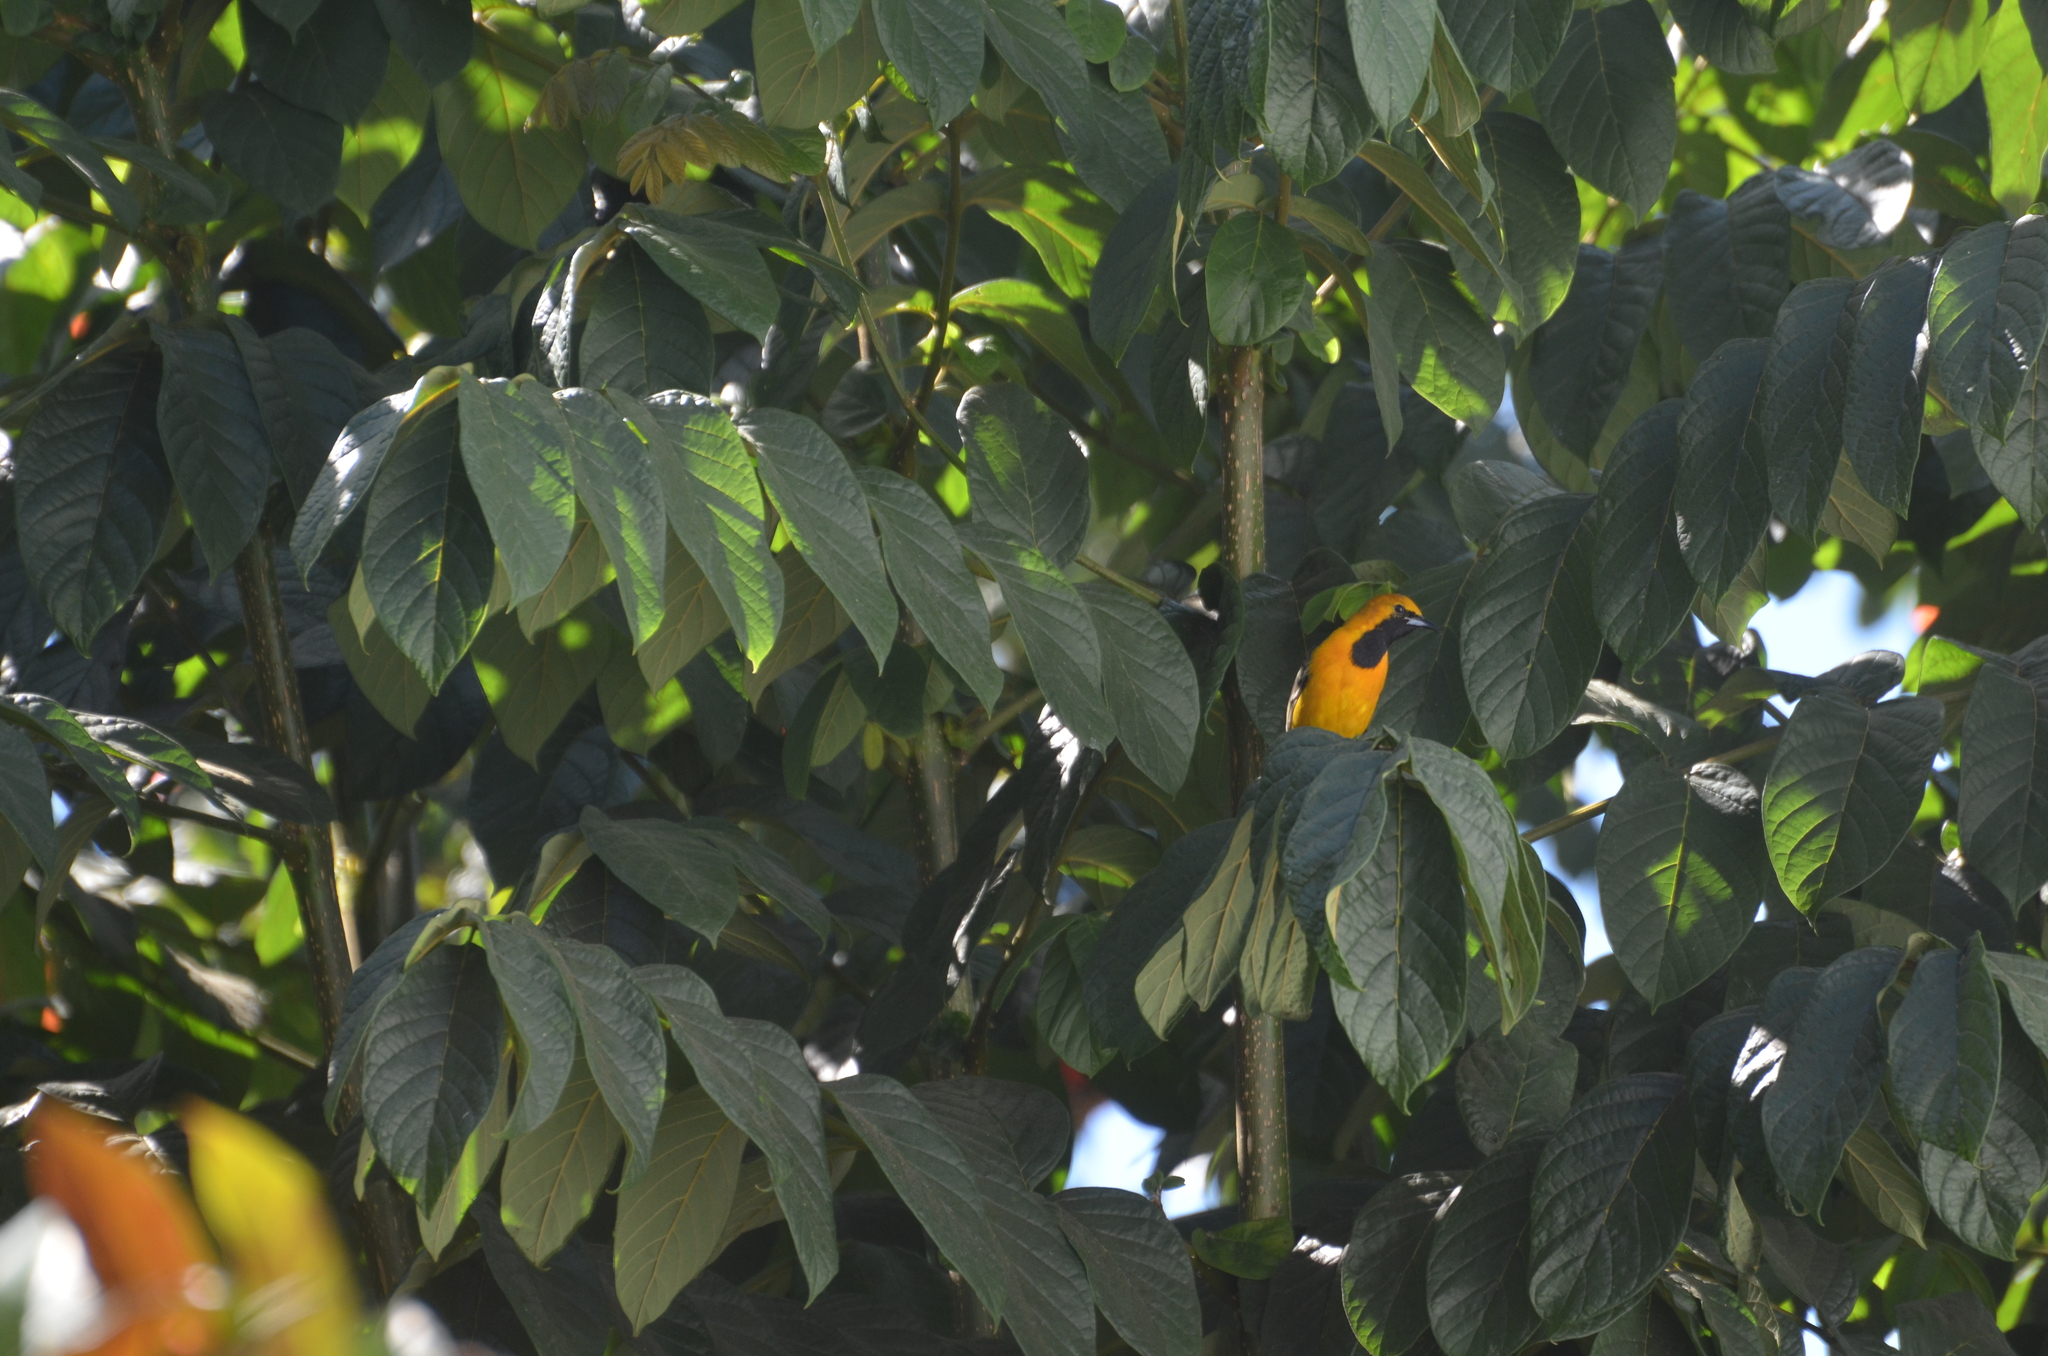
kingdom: Animalia
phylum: Chordata
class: Aves
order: Passeriformes
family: Icteridae
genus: Icterus
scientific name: Icterus cucullatus
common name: Hooded oriole
